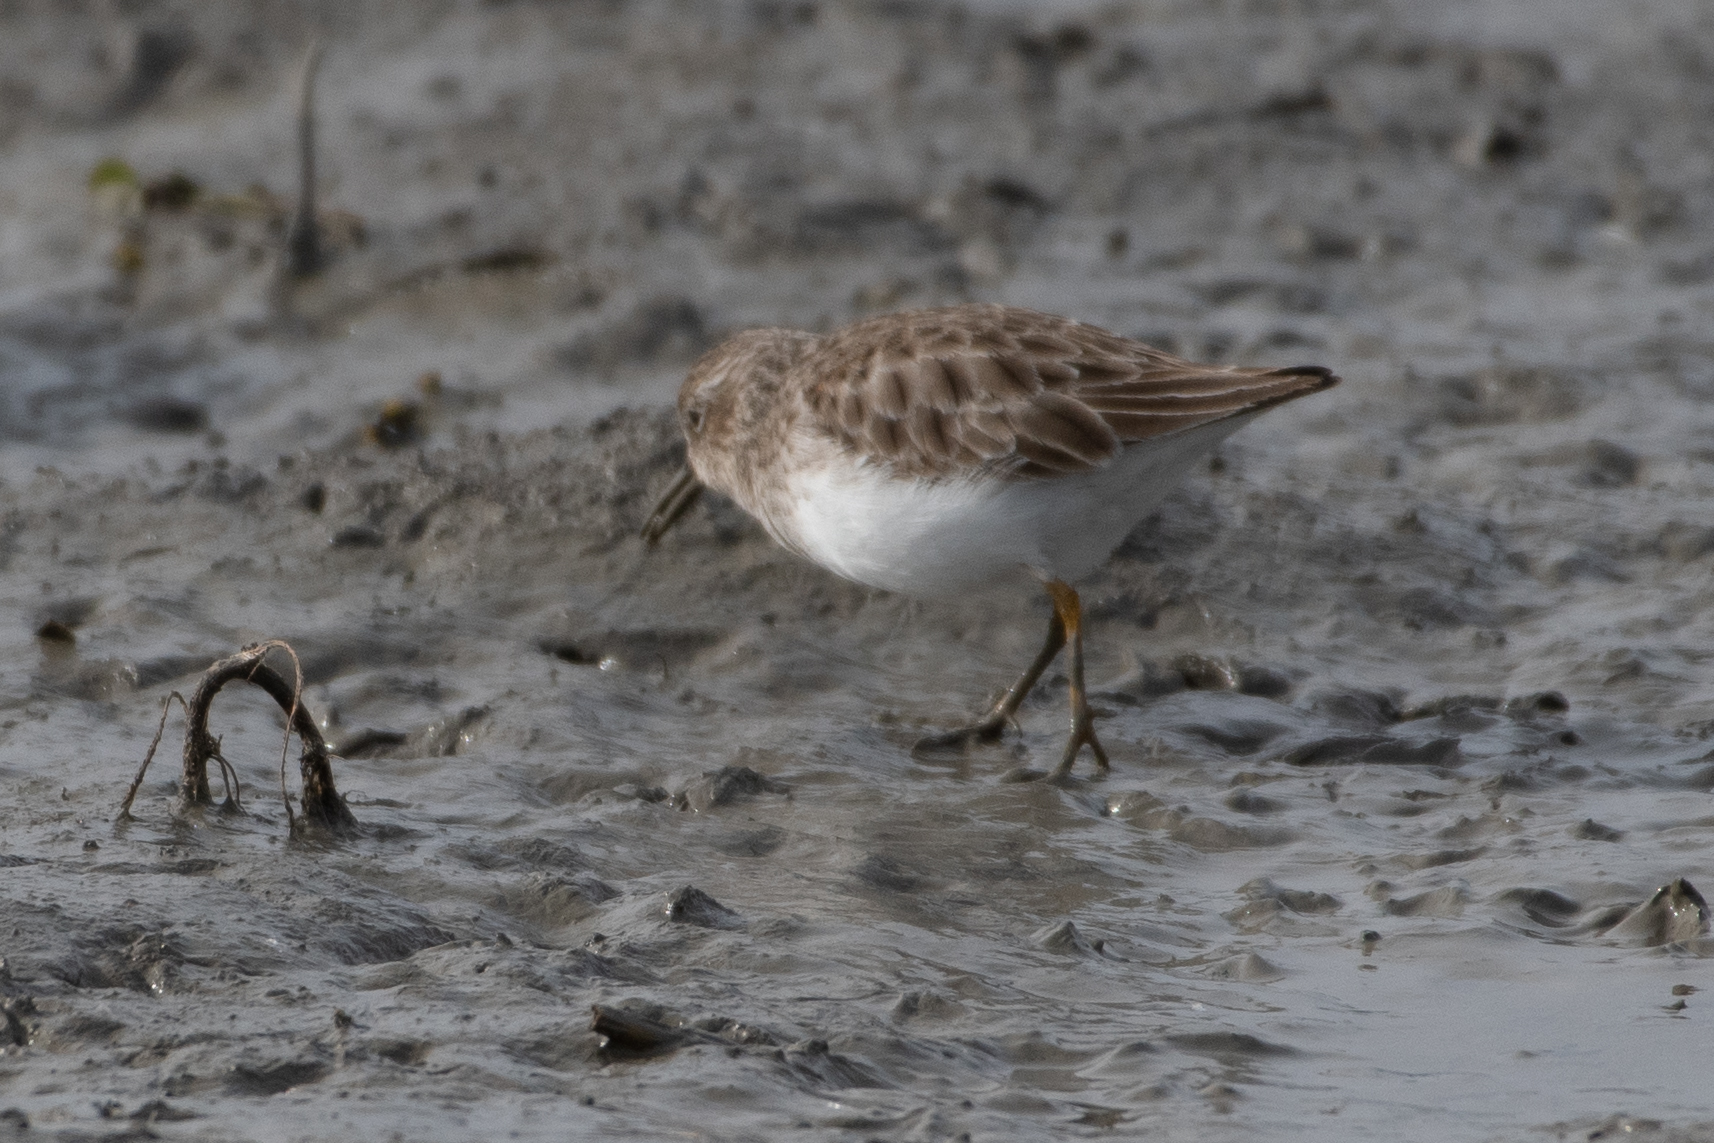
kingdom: Animalia
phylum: Chordata
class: Aves
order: Charadriiformes
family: Scolopacidae
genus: Calidris
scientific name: Calidris minutilla
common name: Least sandpiper
